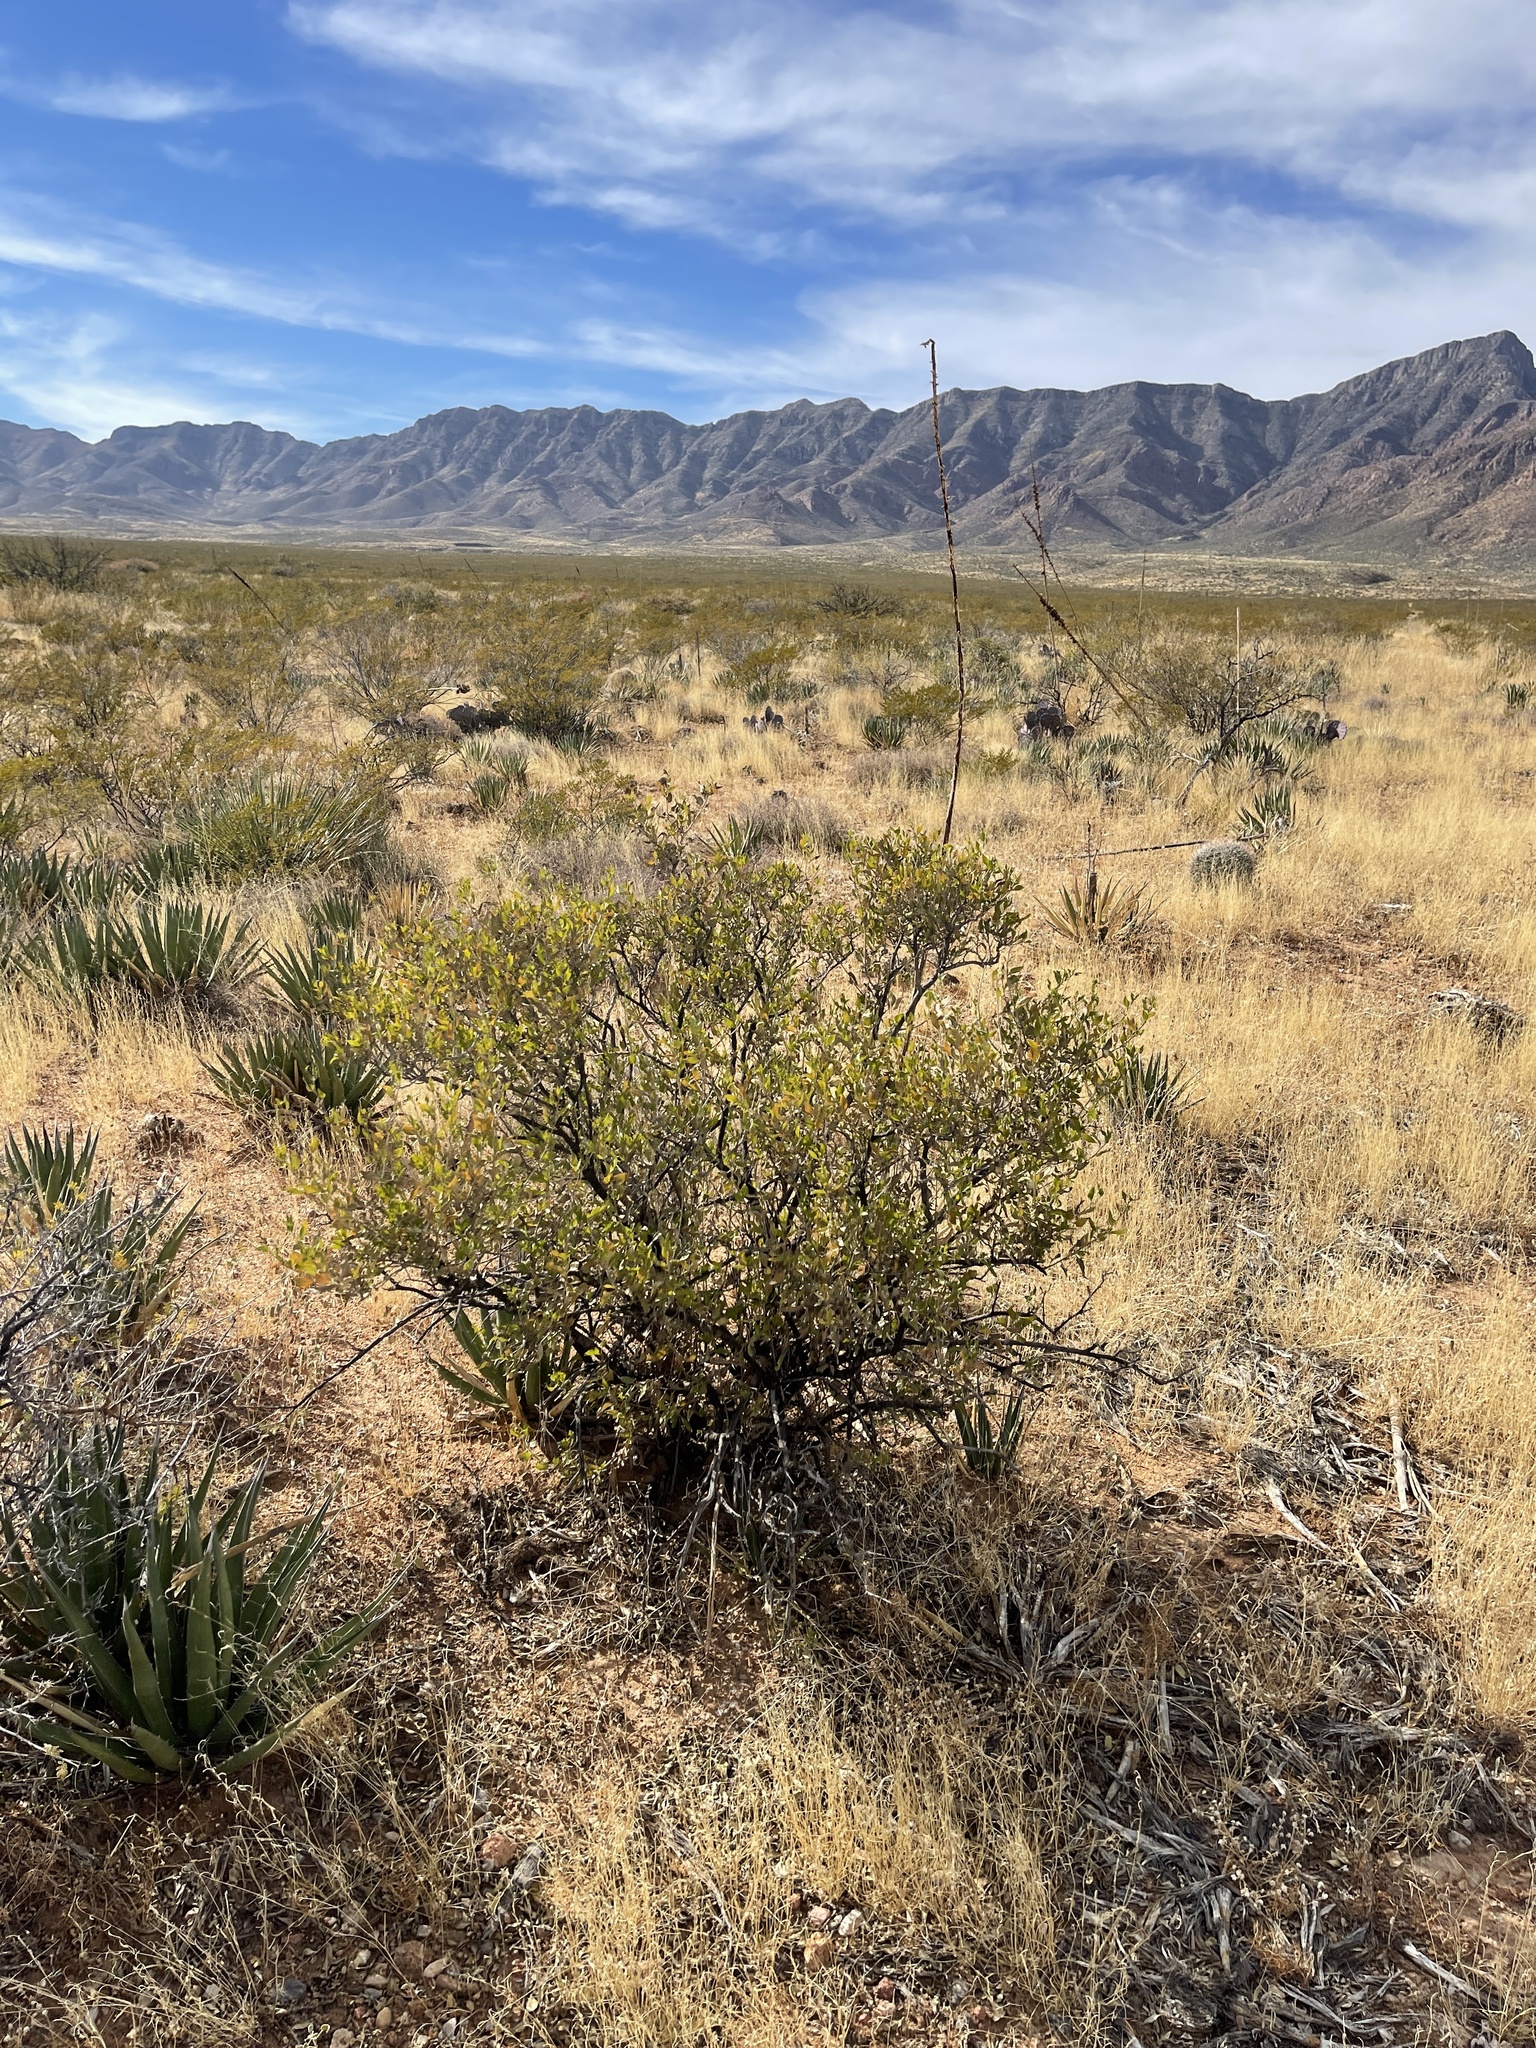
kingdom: Plantae
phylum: Tracheophyta
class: Magnoliopsida
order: Asterales
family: Asteraceae
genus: Flourensia
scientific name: Flourensia cernua
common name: Varnishbush
